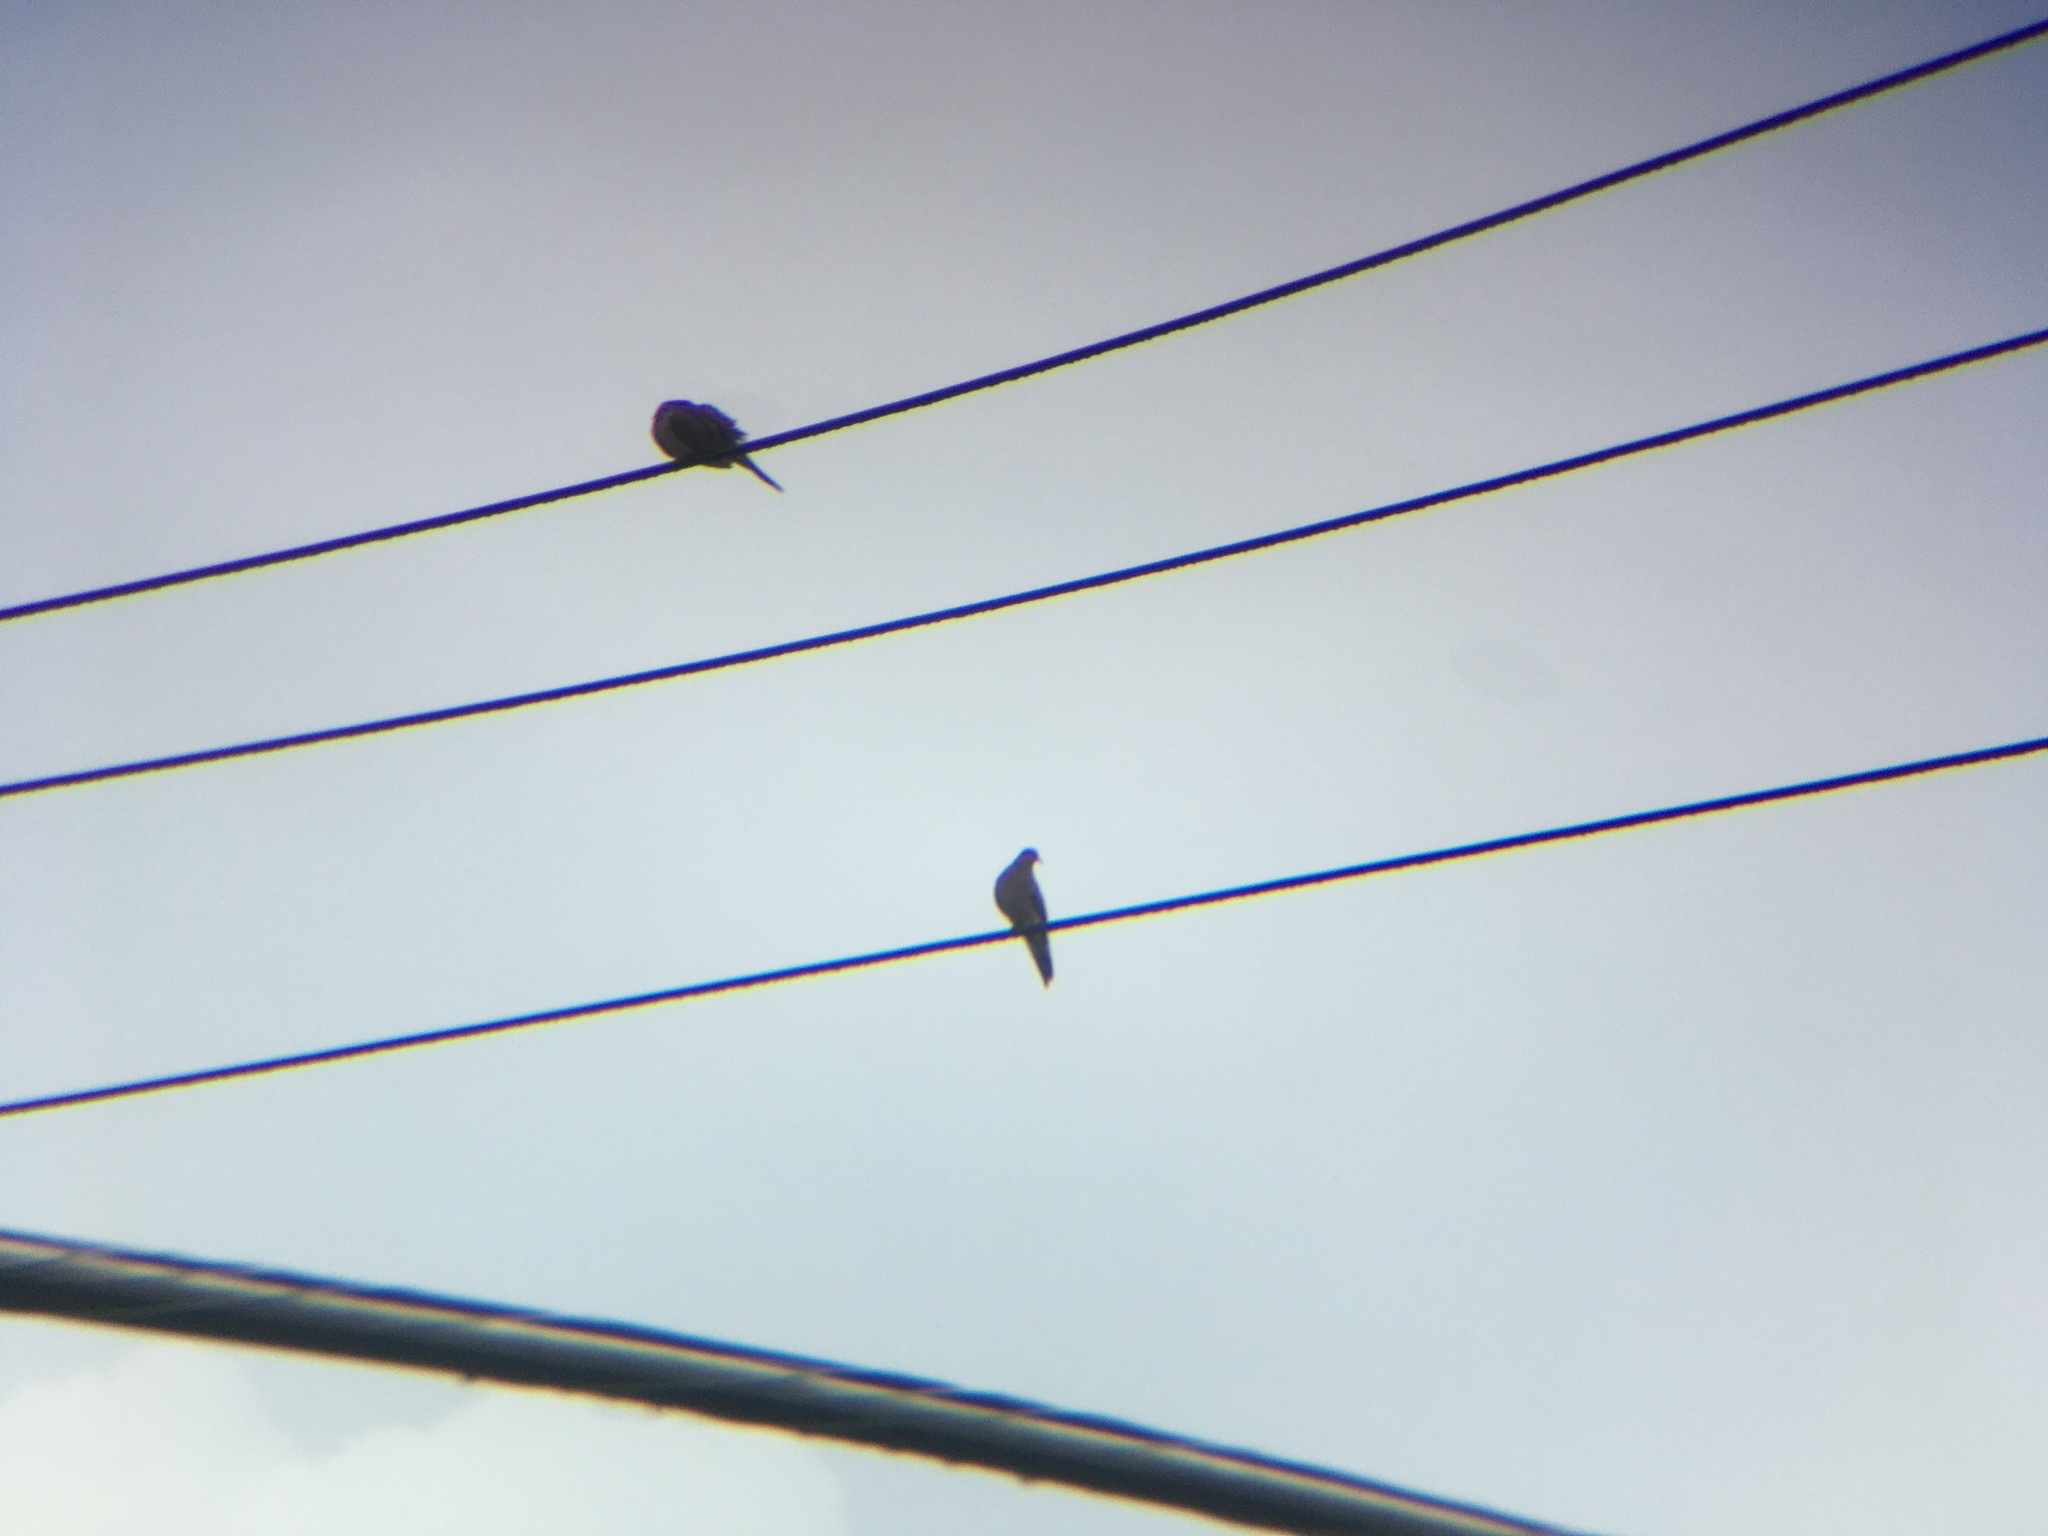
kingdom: Animalia
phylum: Chordata
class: Aves
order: Columbiformes
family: Columbidae
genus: Zenaida
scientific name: Zenaida macroura
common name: Mourning dove
